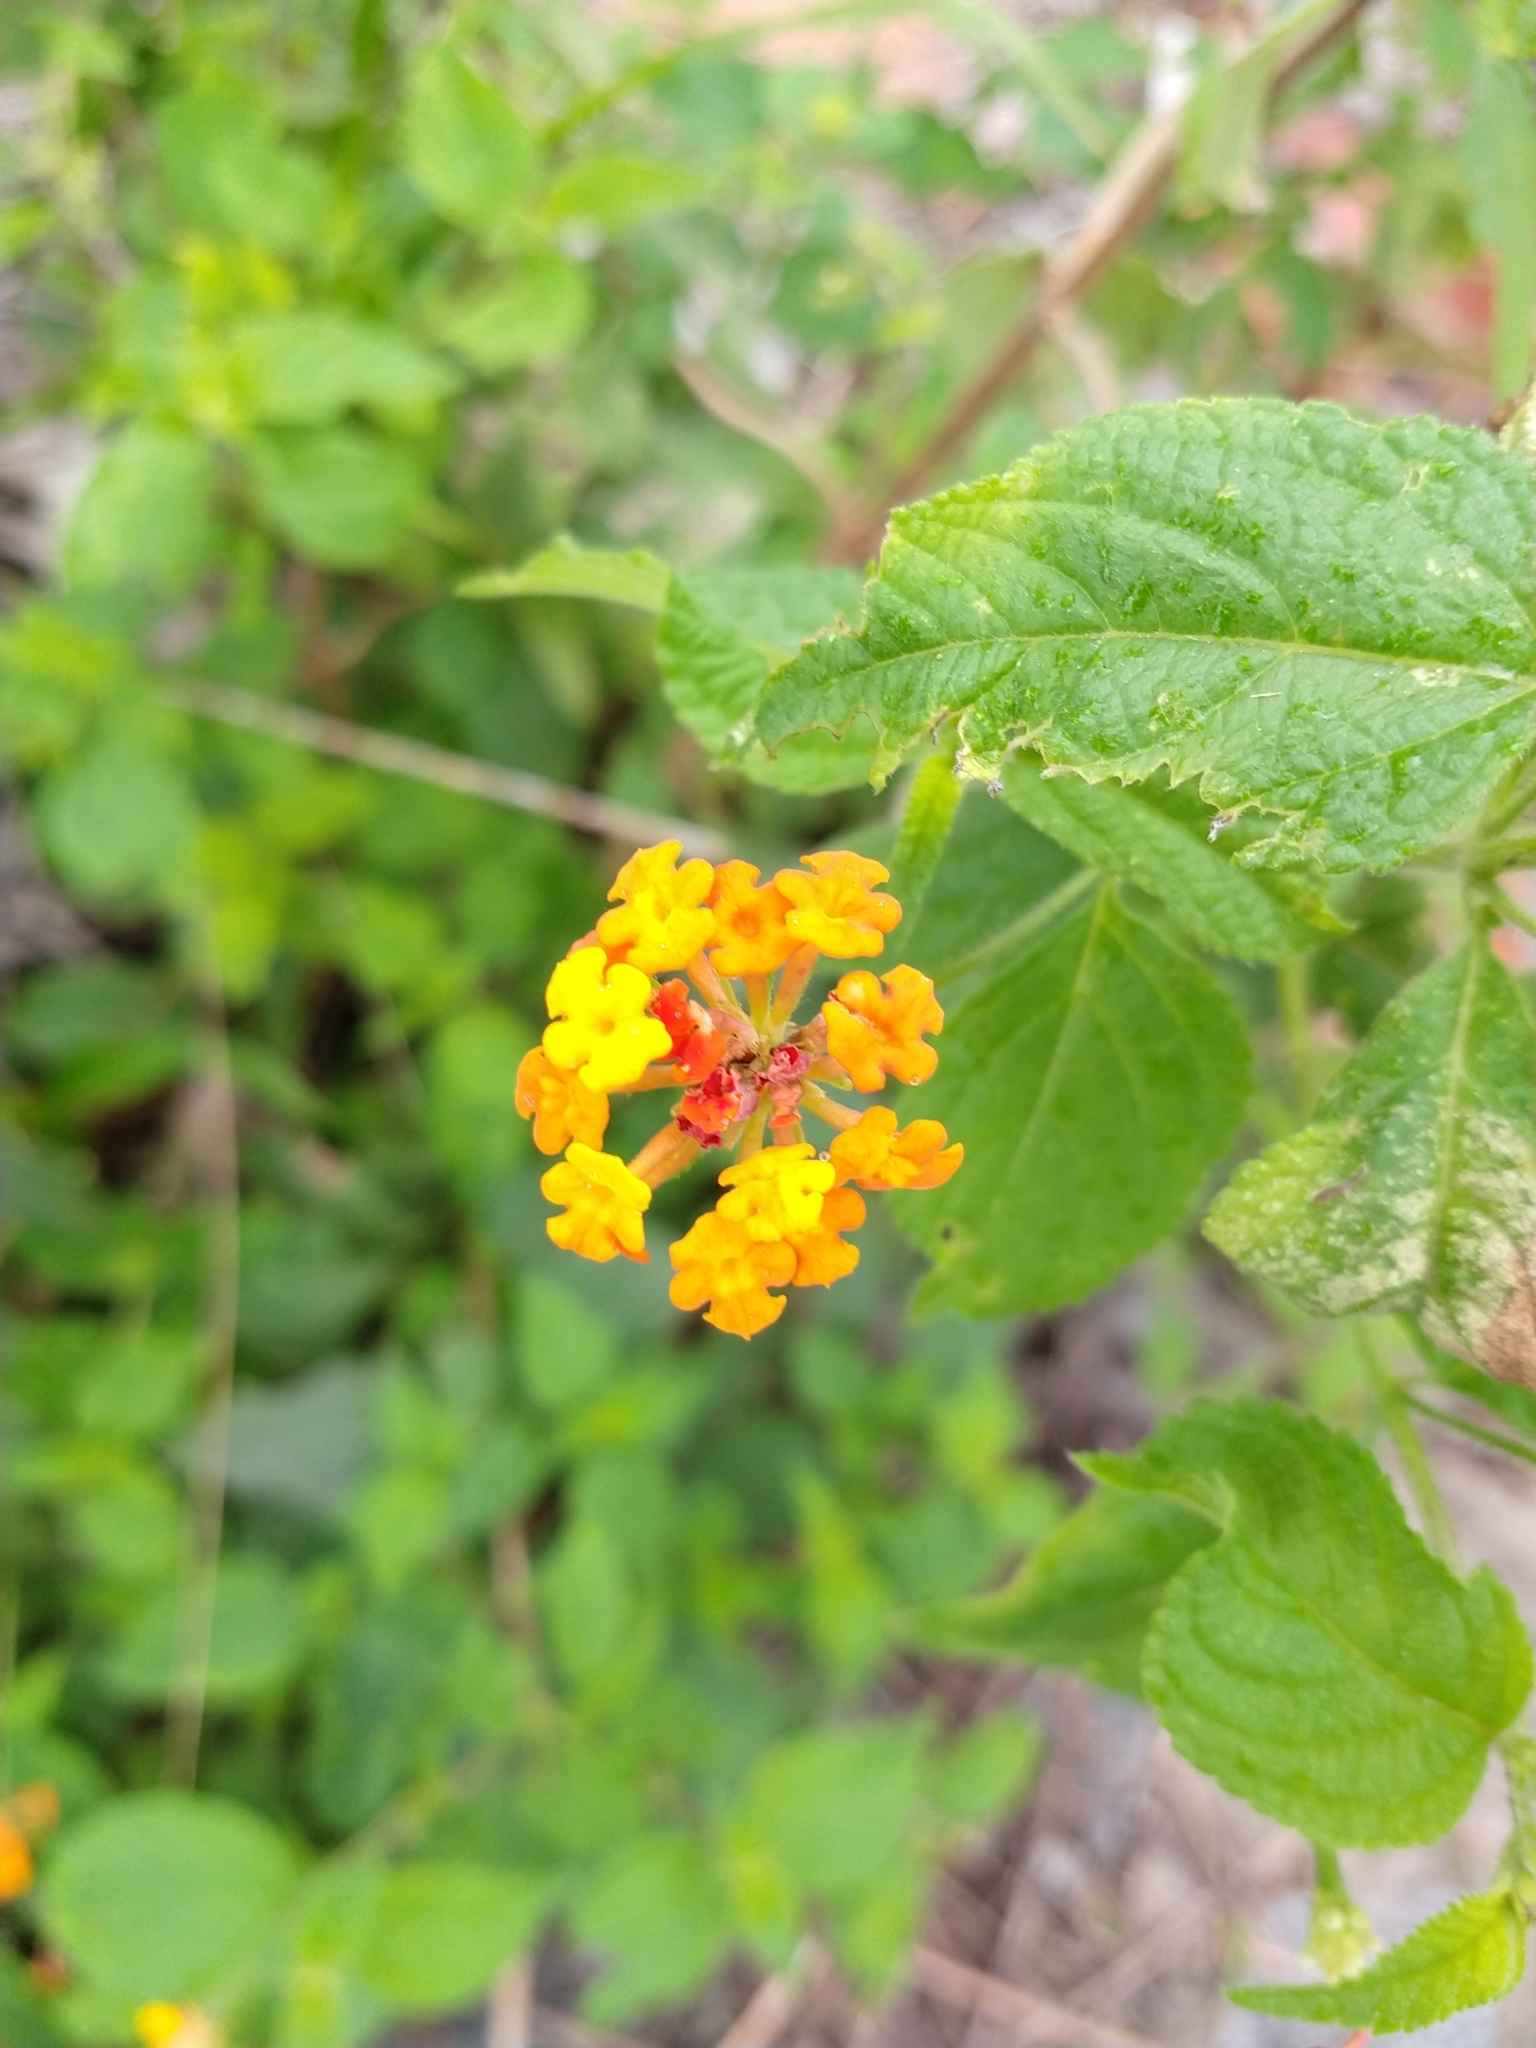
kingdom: Plantae
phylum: Tracheophyta
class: Magnoliopsida
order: Lamiales
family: Verbenaceae
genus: Lantana
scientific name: Lantana camara
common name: Lantana
